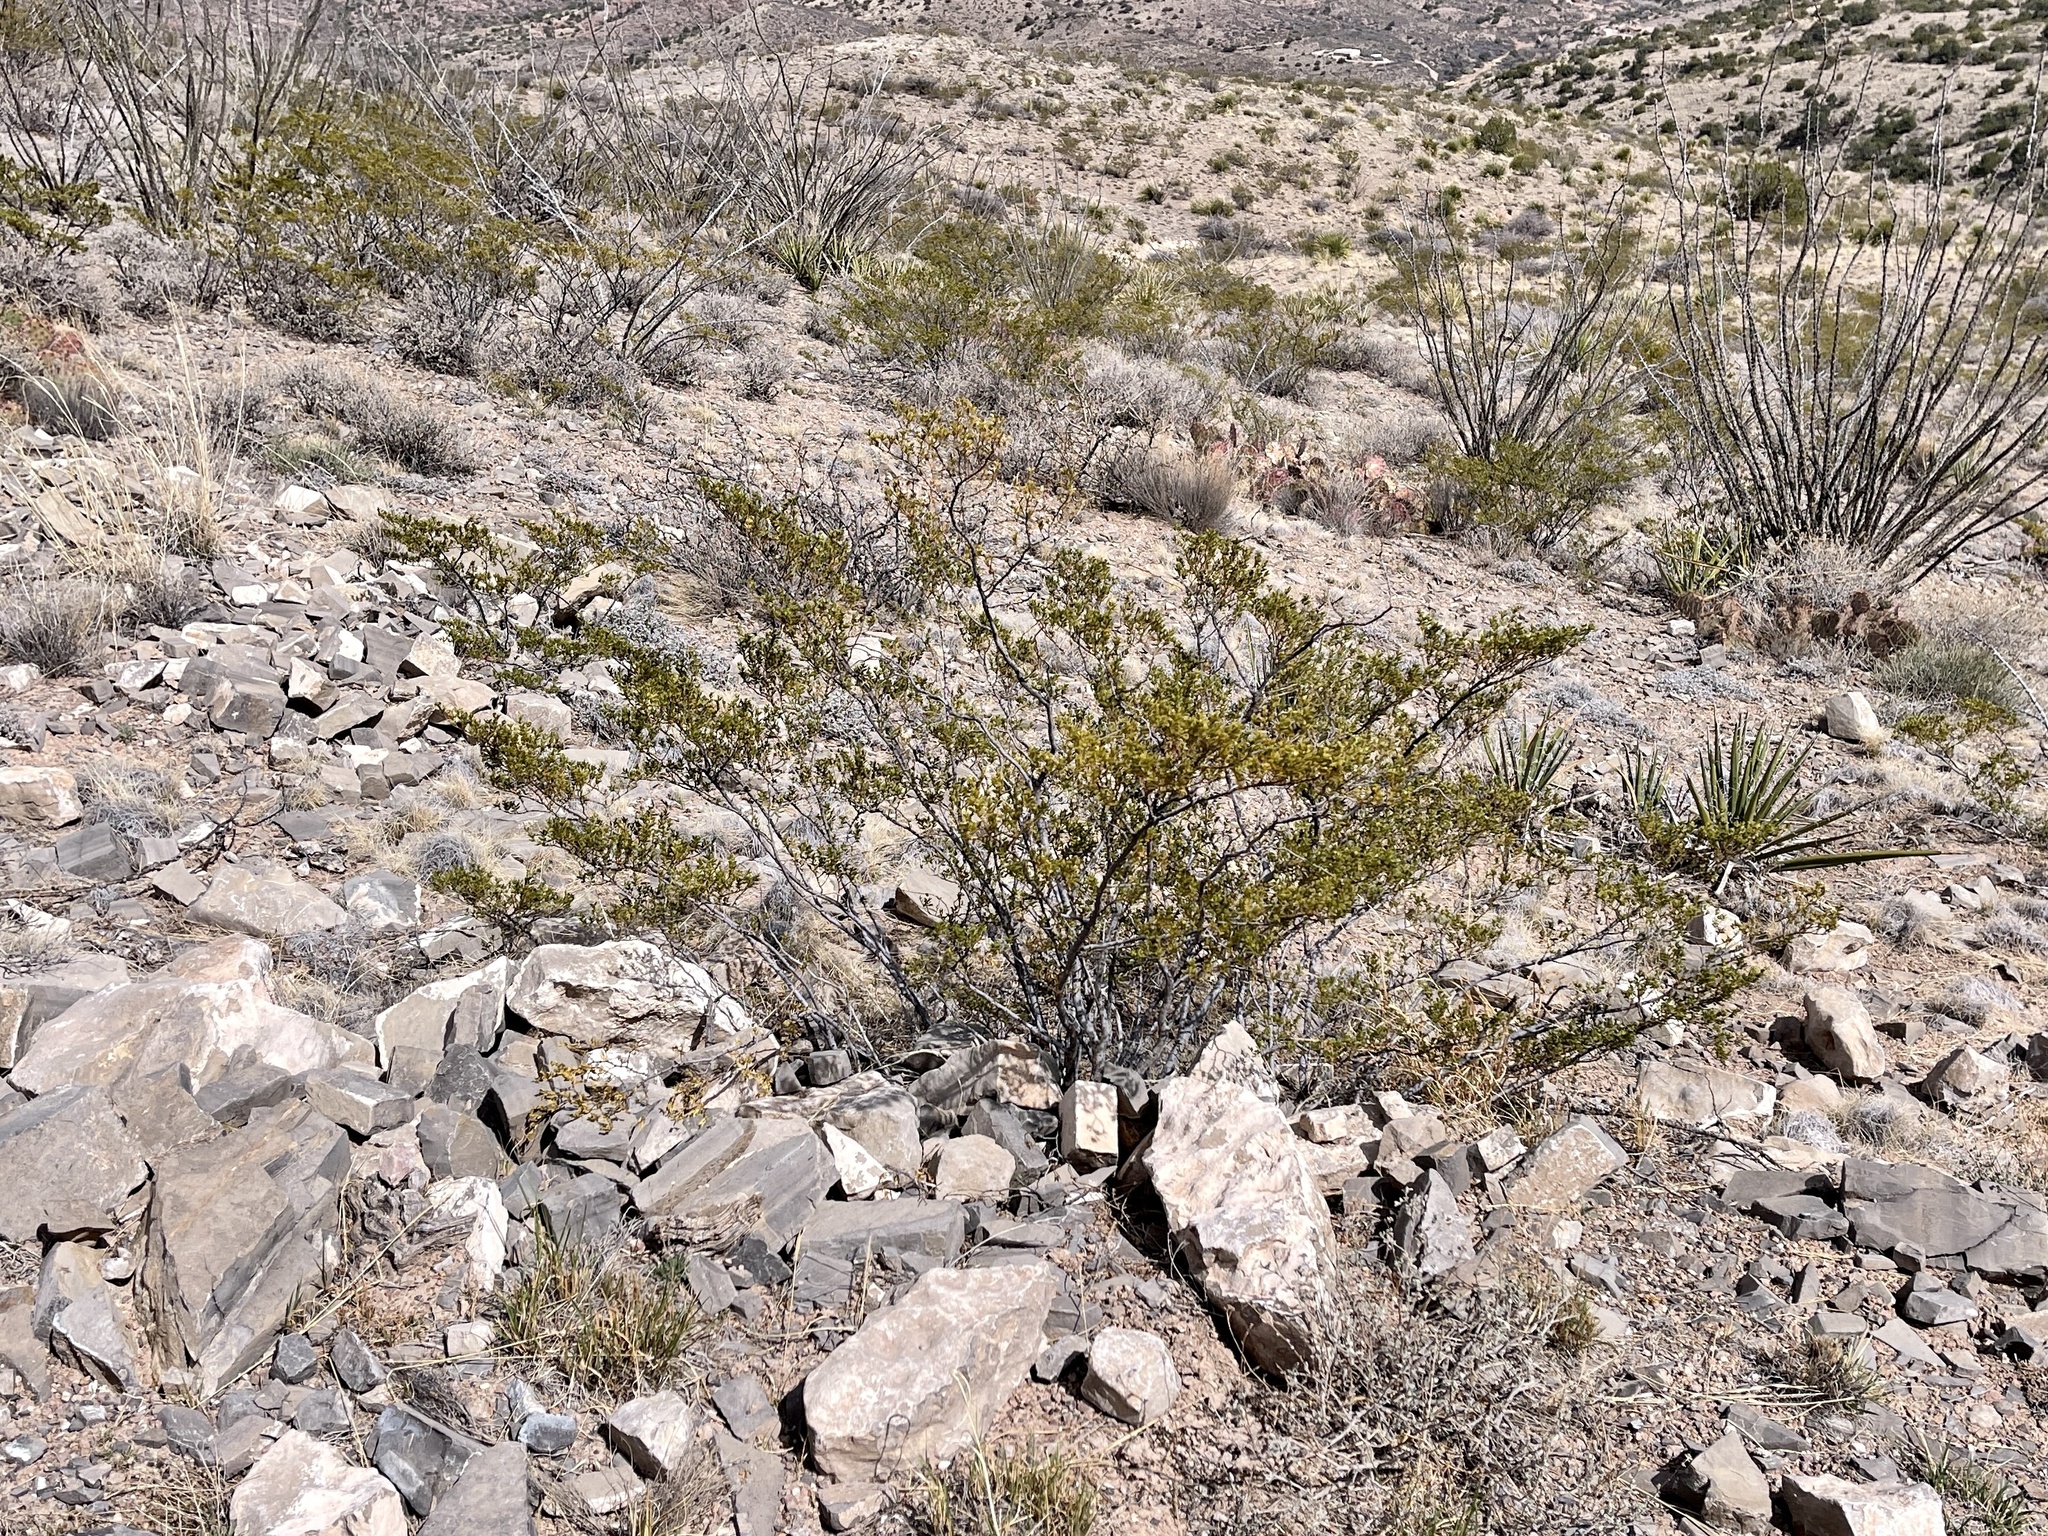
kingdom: Plantae
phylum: Tracheophyta
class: Magnoliopsida
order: Zygophyllales
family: Zygophyllaceae
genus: Larrea
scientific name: Larrea tridentata
